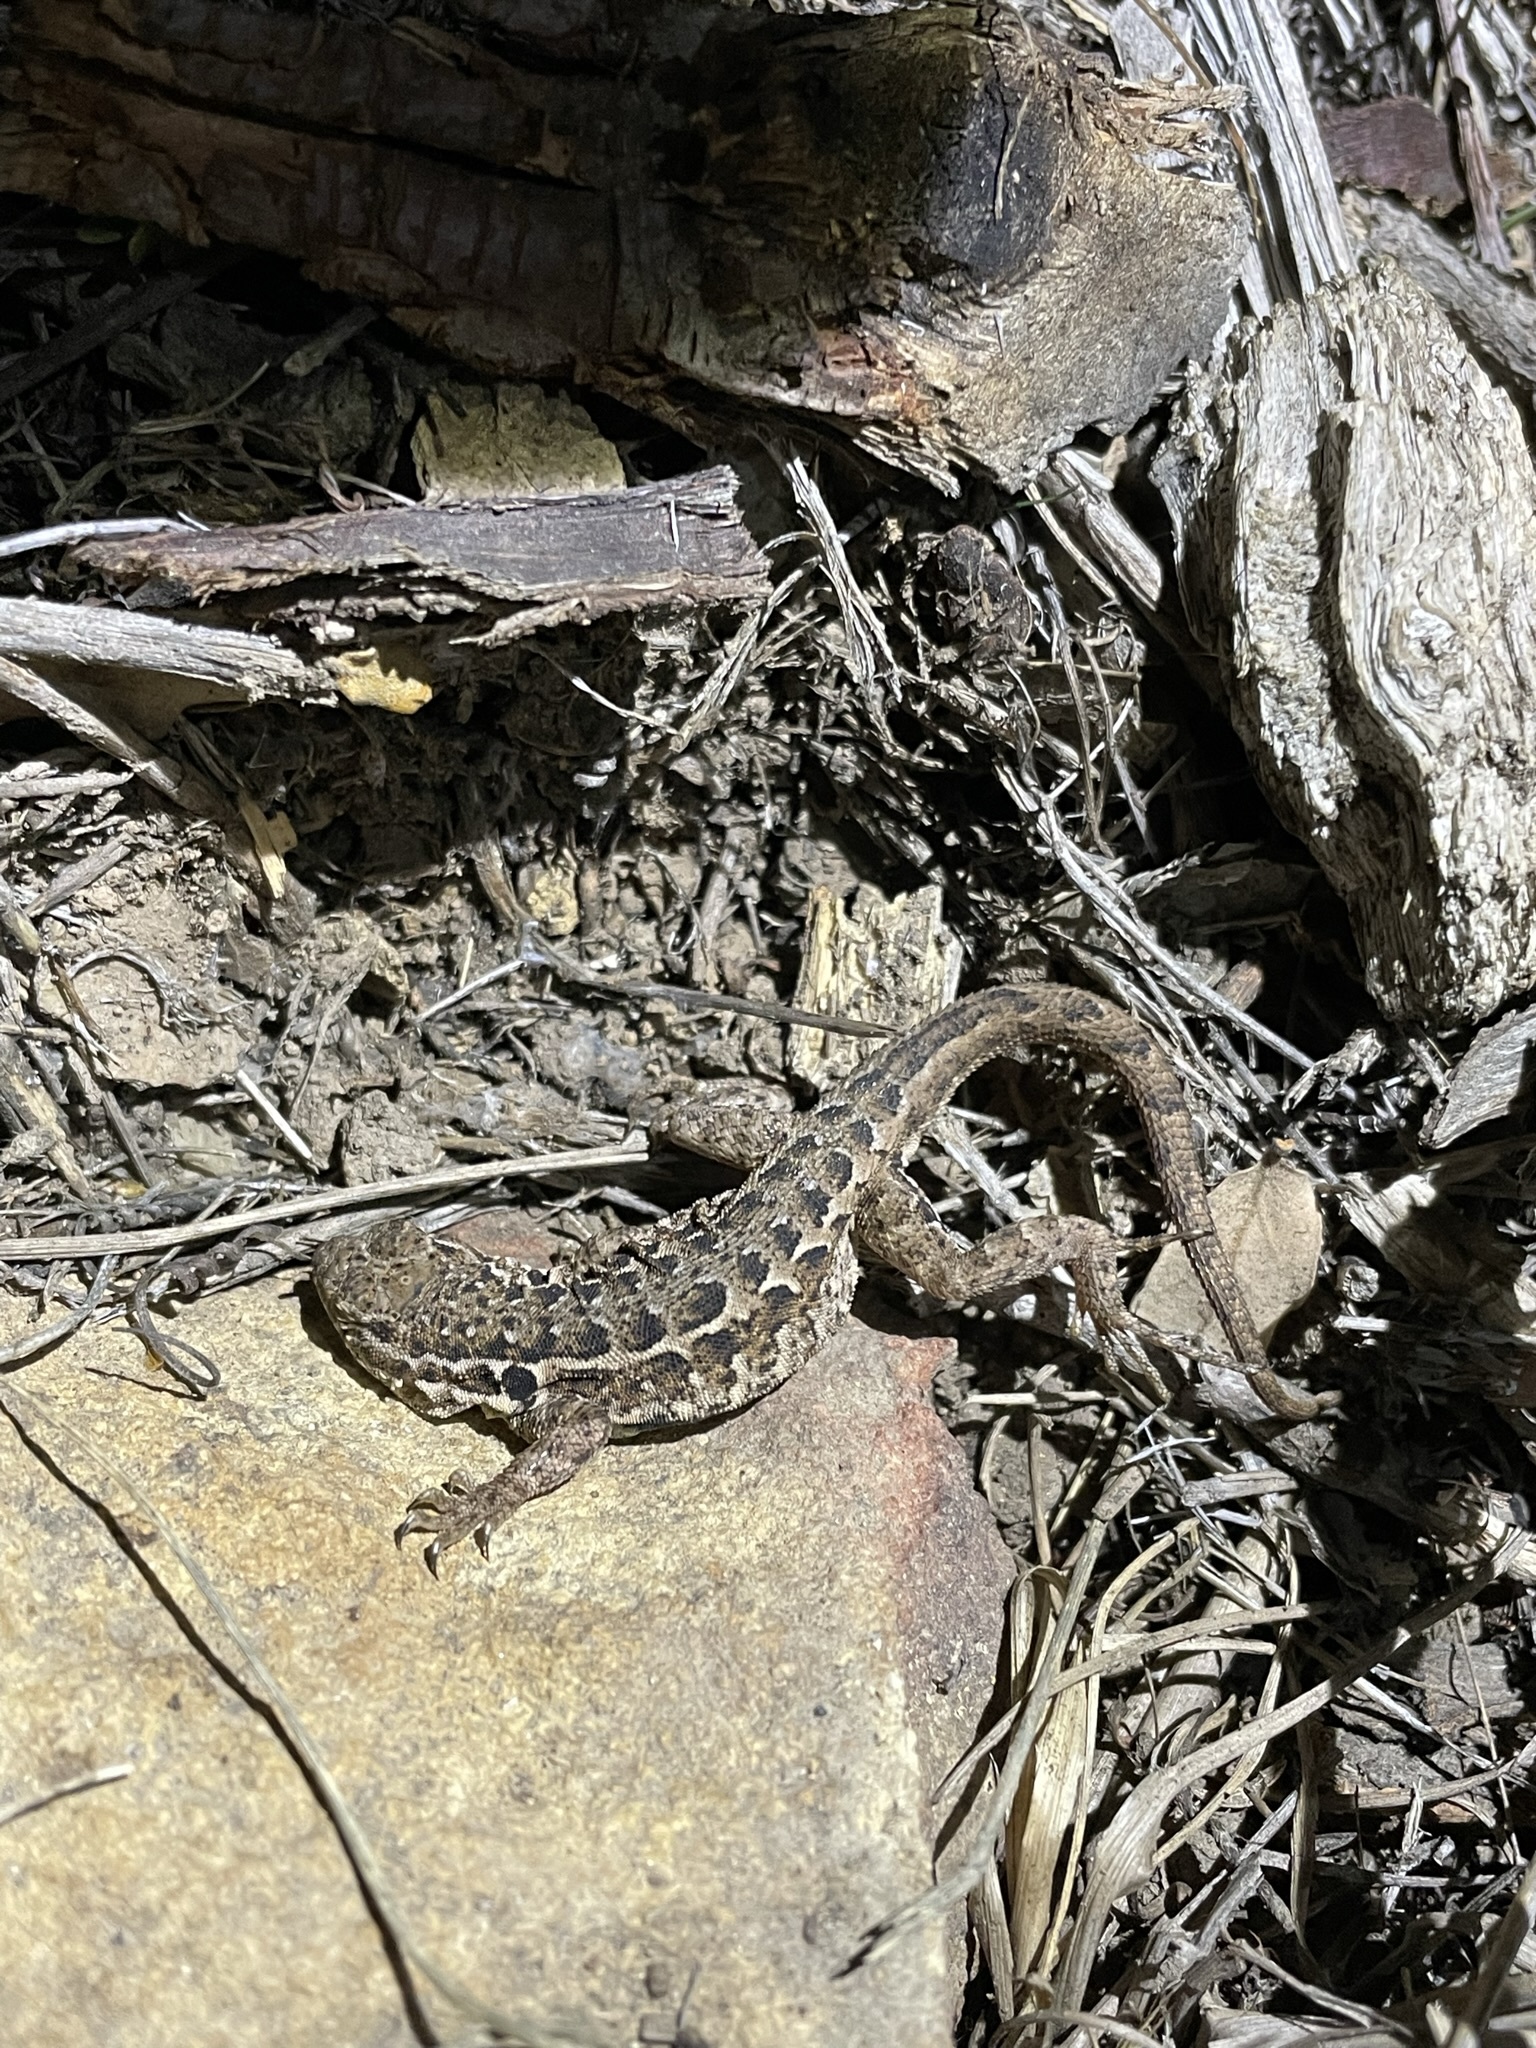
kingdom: Animalia
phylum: Chordata
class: Squamata
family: Phrynosomatidae
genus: Uta
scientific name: Uta stansburiana
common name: Side-blotched lizard
